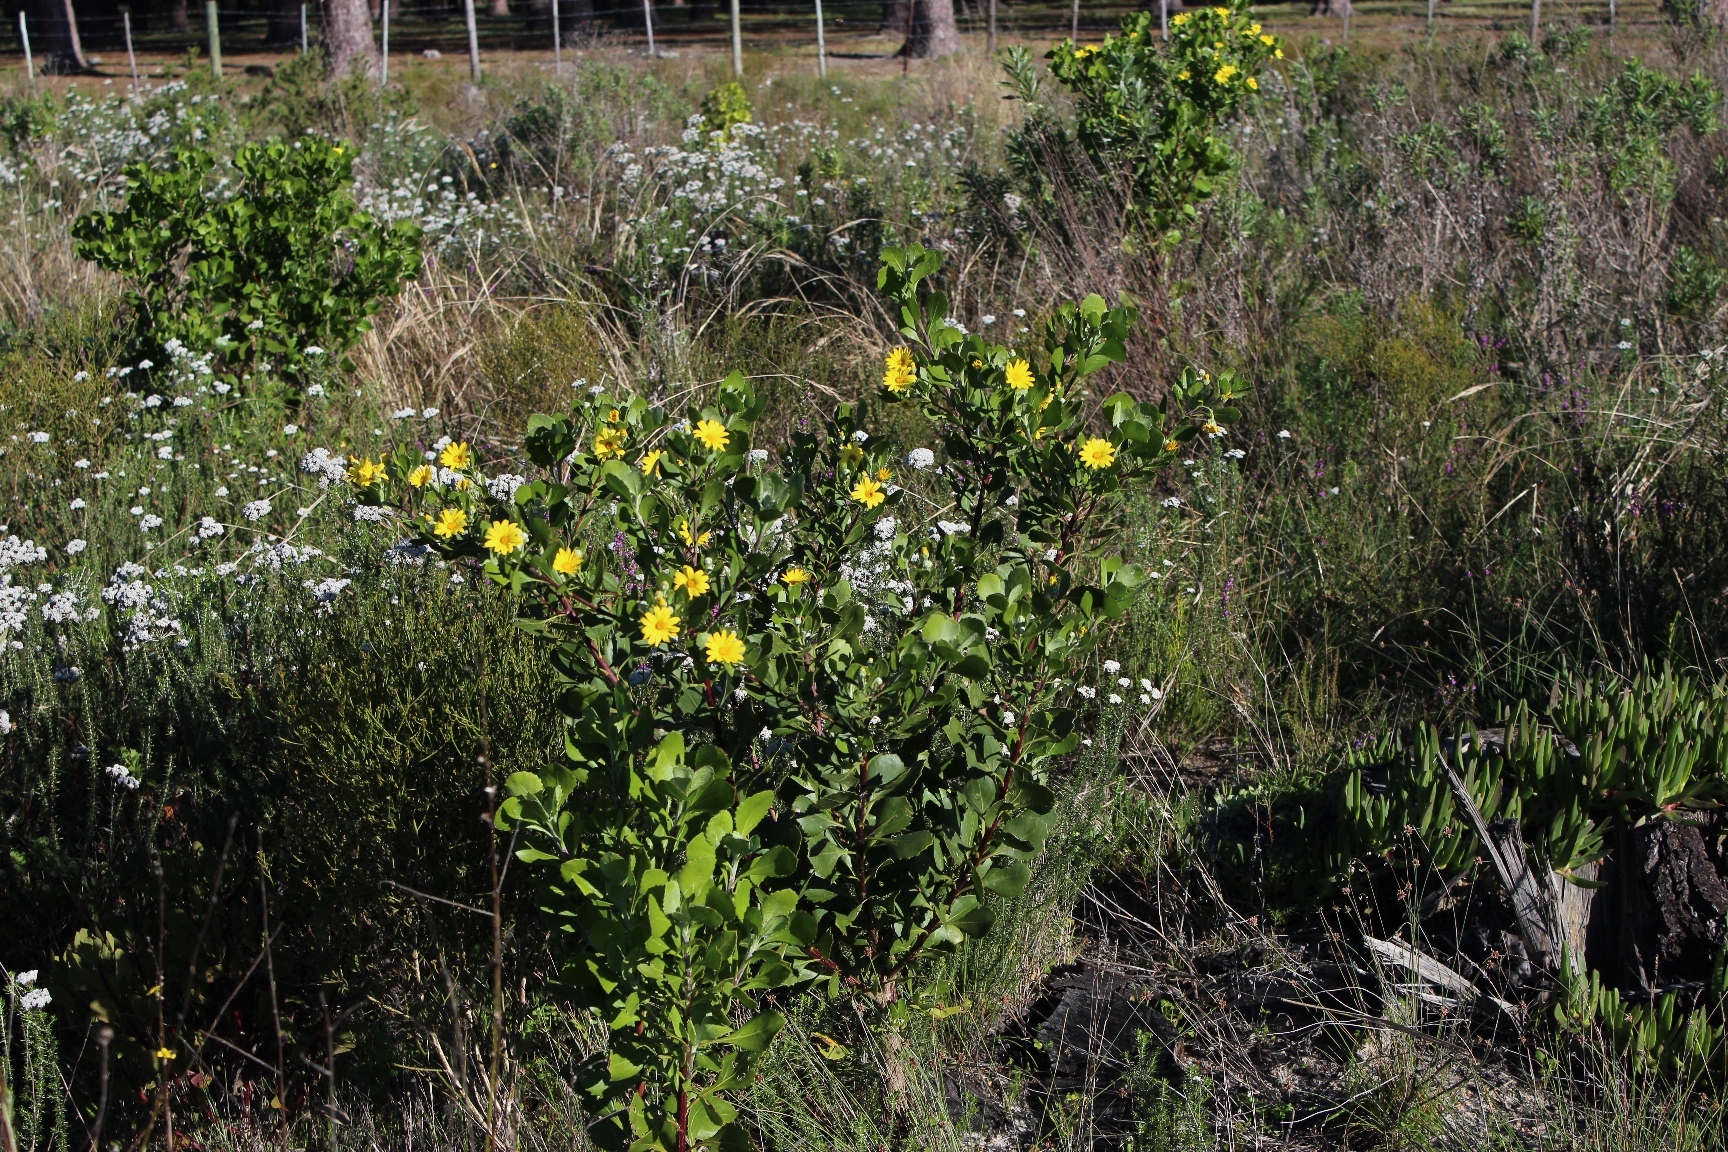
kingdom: Plantae
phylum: Tracheophyta
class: Magnoliopsida
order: Asterales
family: Asteraceae
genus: Osteospermum
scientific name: Osteospermum moniliferum
